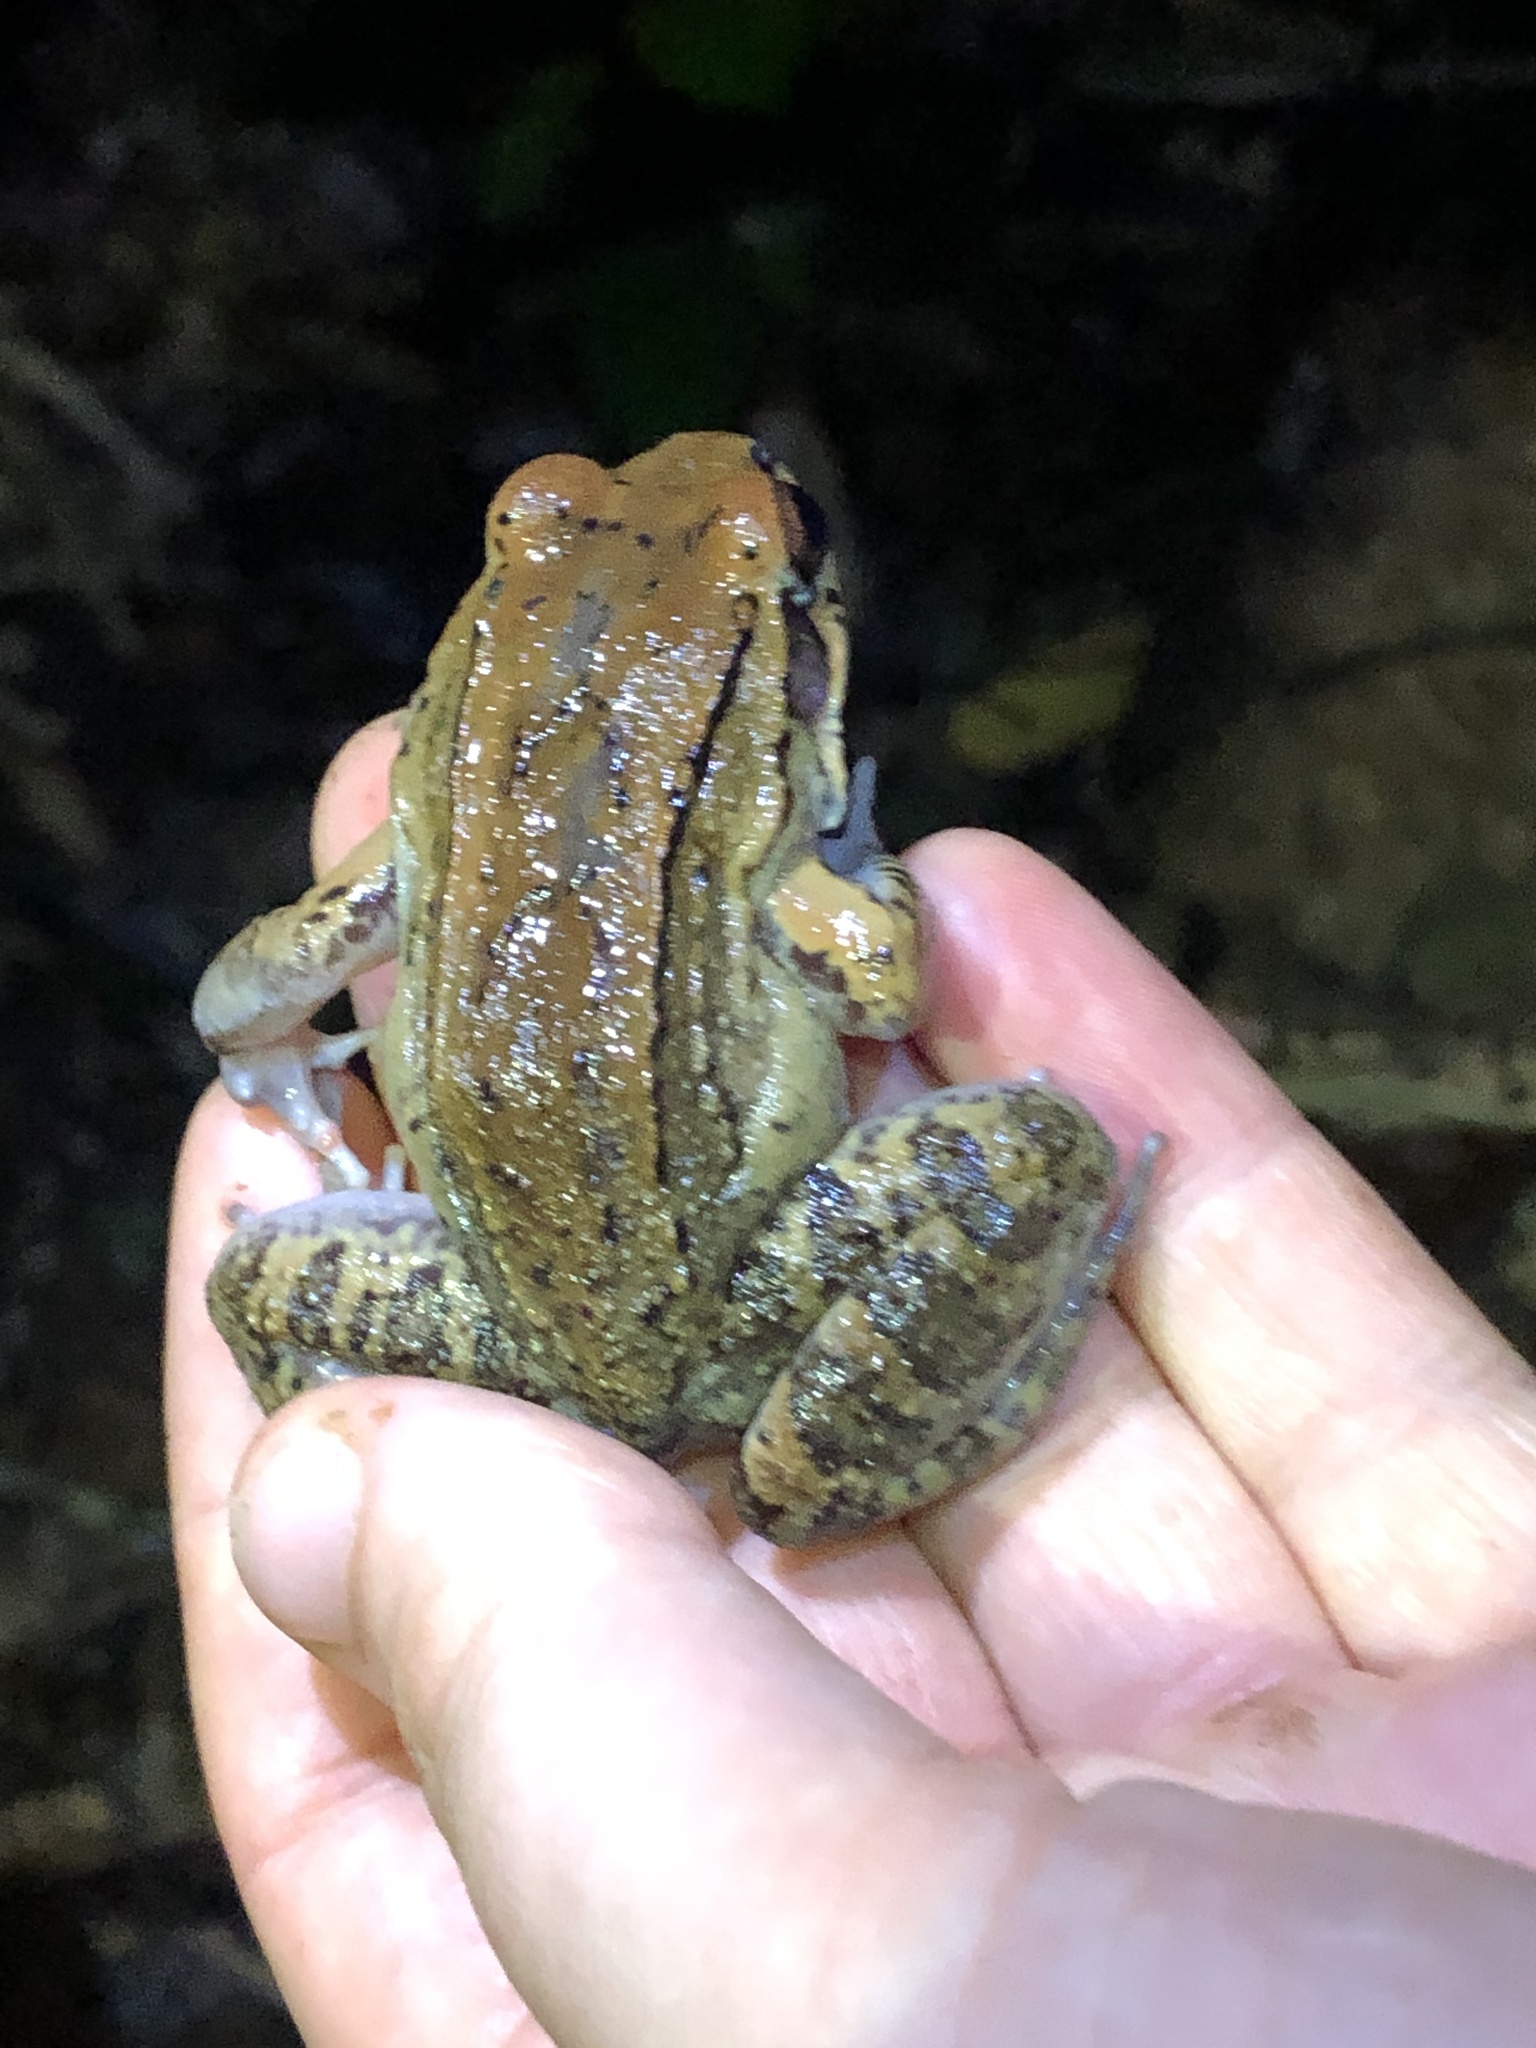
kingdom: Animalia
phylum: Chordata
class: Amphibia
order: Anura
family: Leptodactylidae
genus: Leptodactylus
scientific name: Leptodactylus rhodonotus
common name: Peru white-lipped frog
